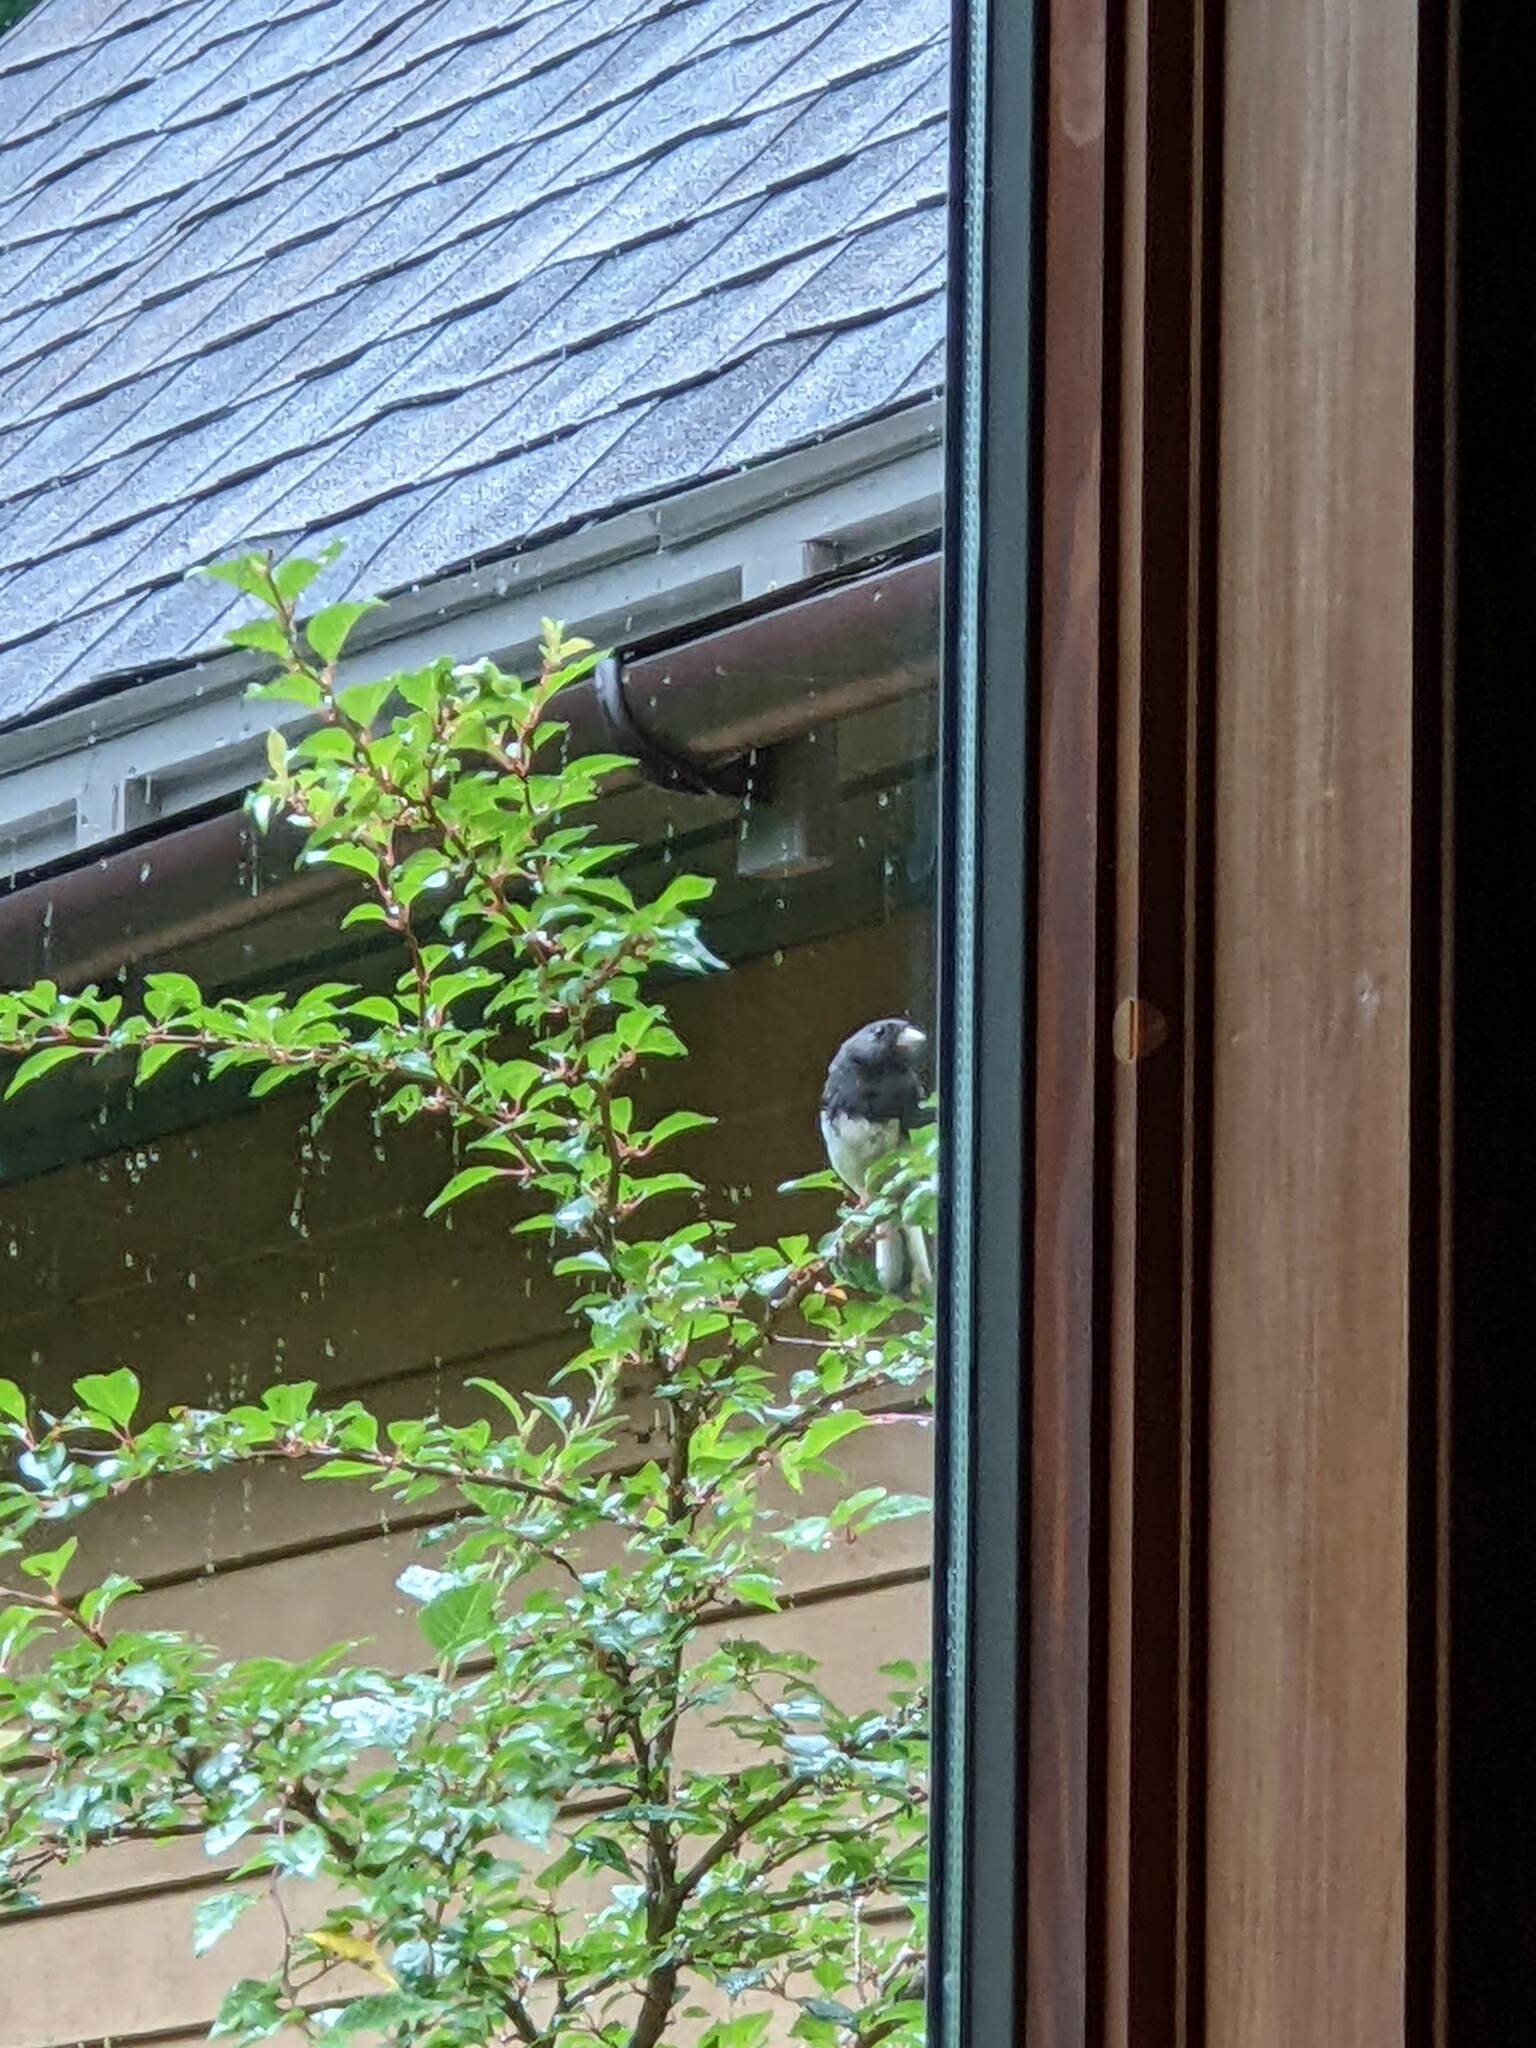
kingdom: Animalia
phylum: Chordata
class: Aves
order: Passeriformes
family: Passerellidae
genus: Junco
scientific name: Junco hyemalis
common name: Dark-eyed junco
